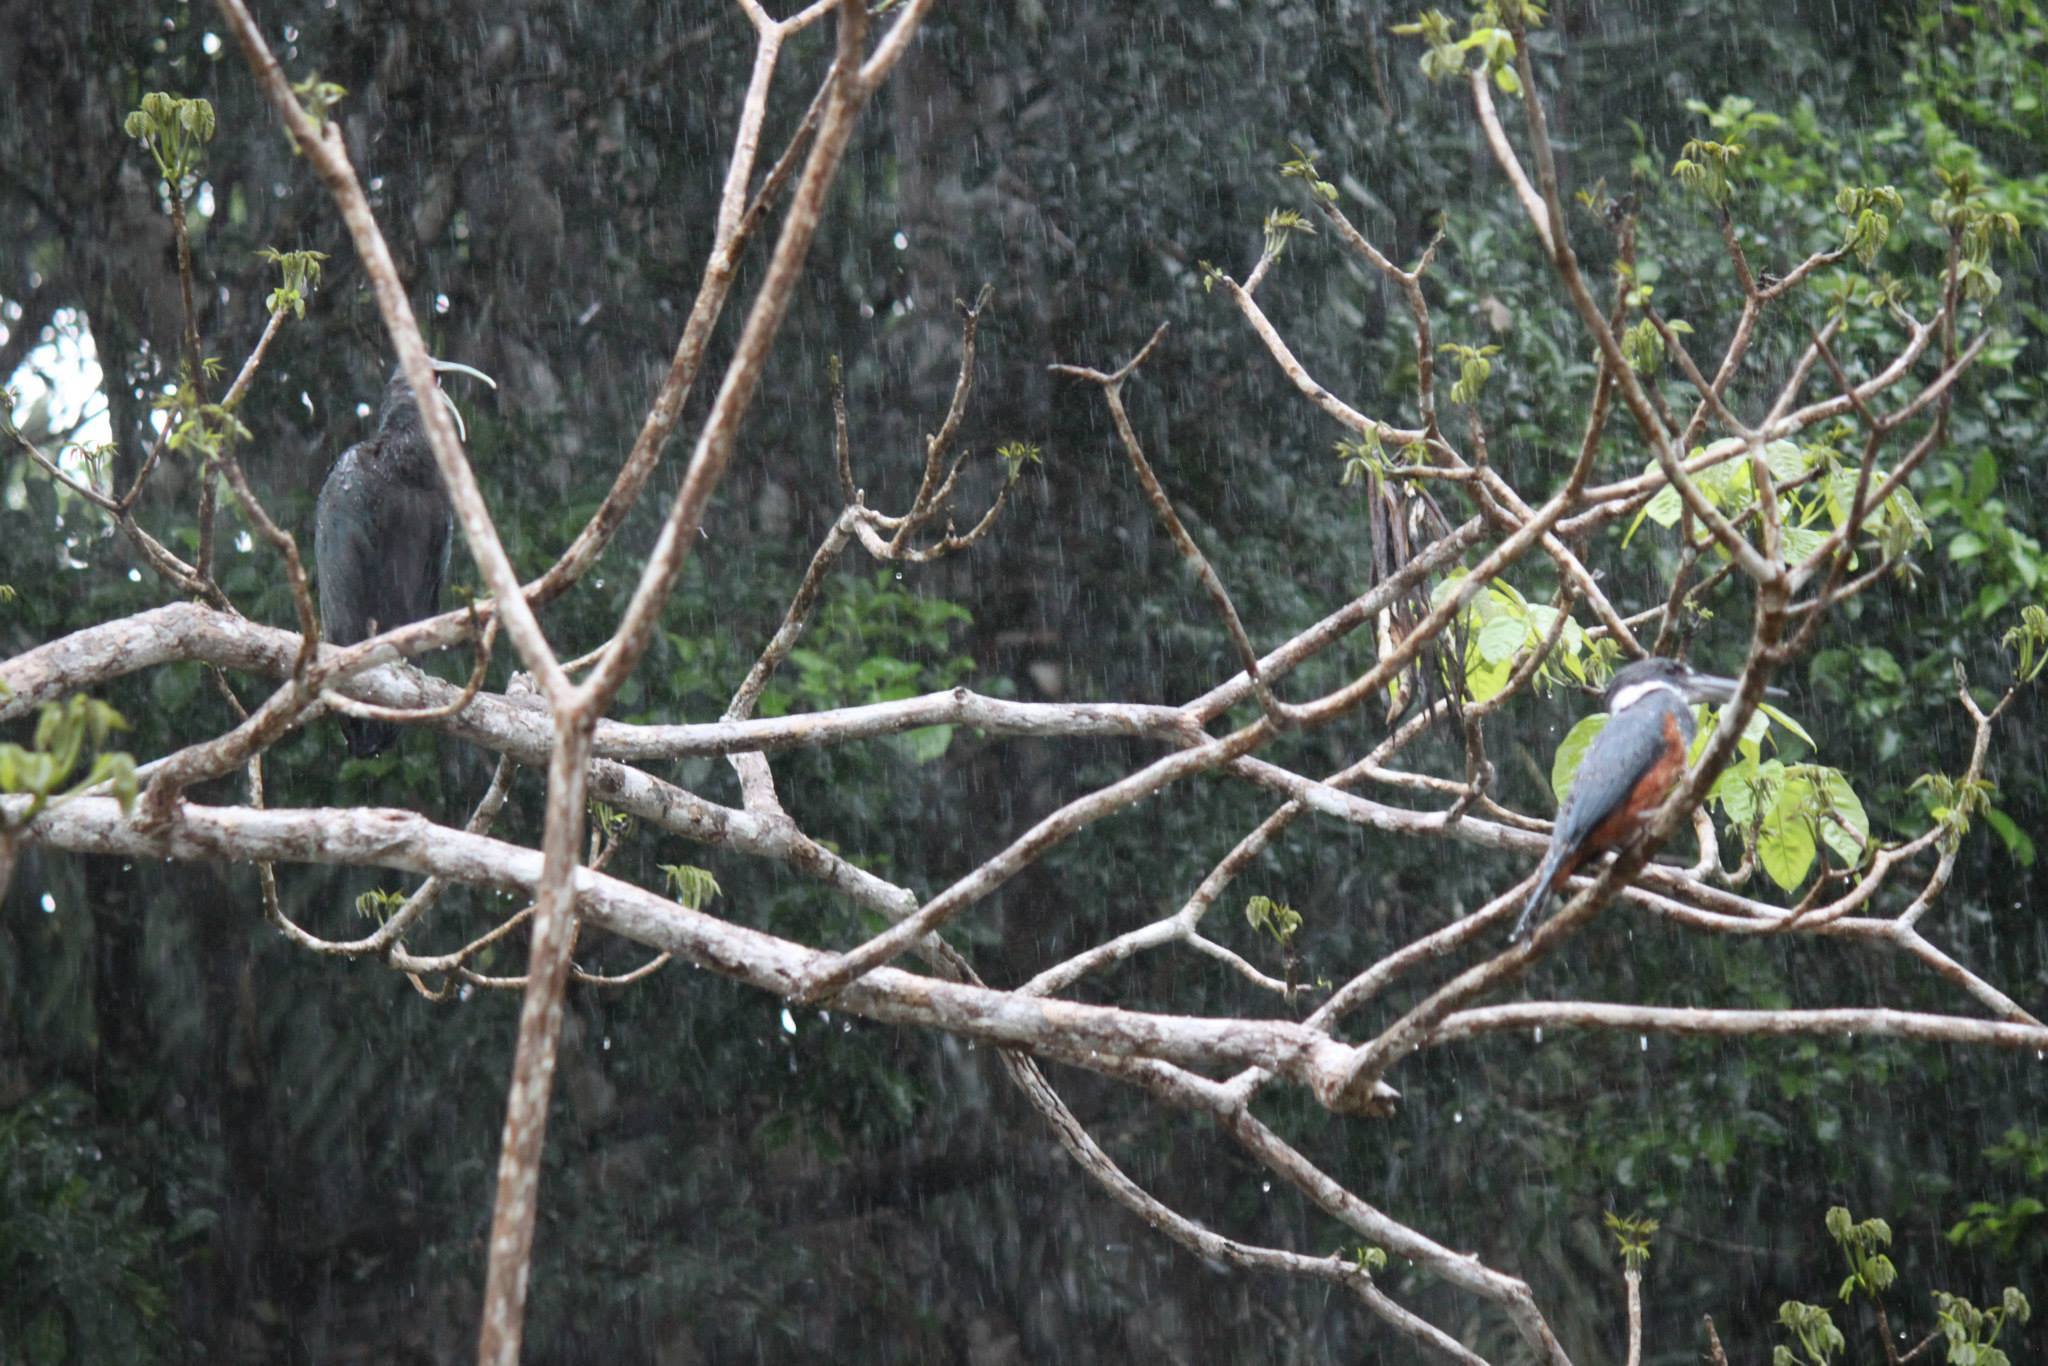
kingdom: Animalia
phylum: Chordata
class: Aves
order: Coraciiformes
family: Alcedinidae
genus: Megaceryle
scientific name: Megaceryle torquata
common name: Ringed kingfisher
